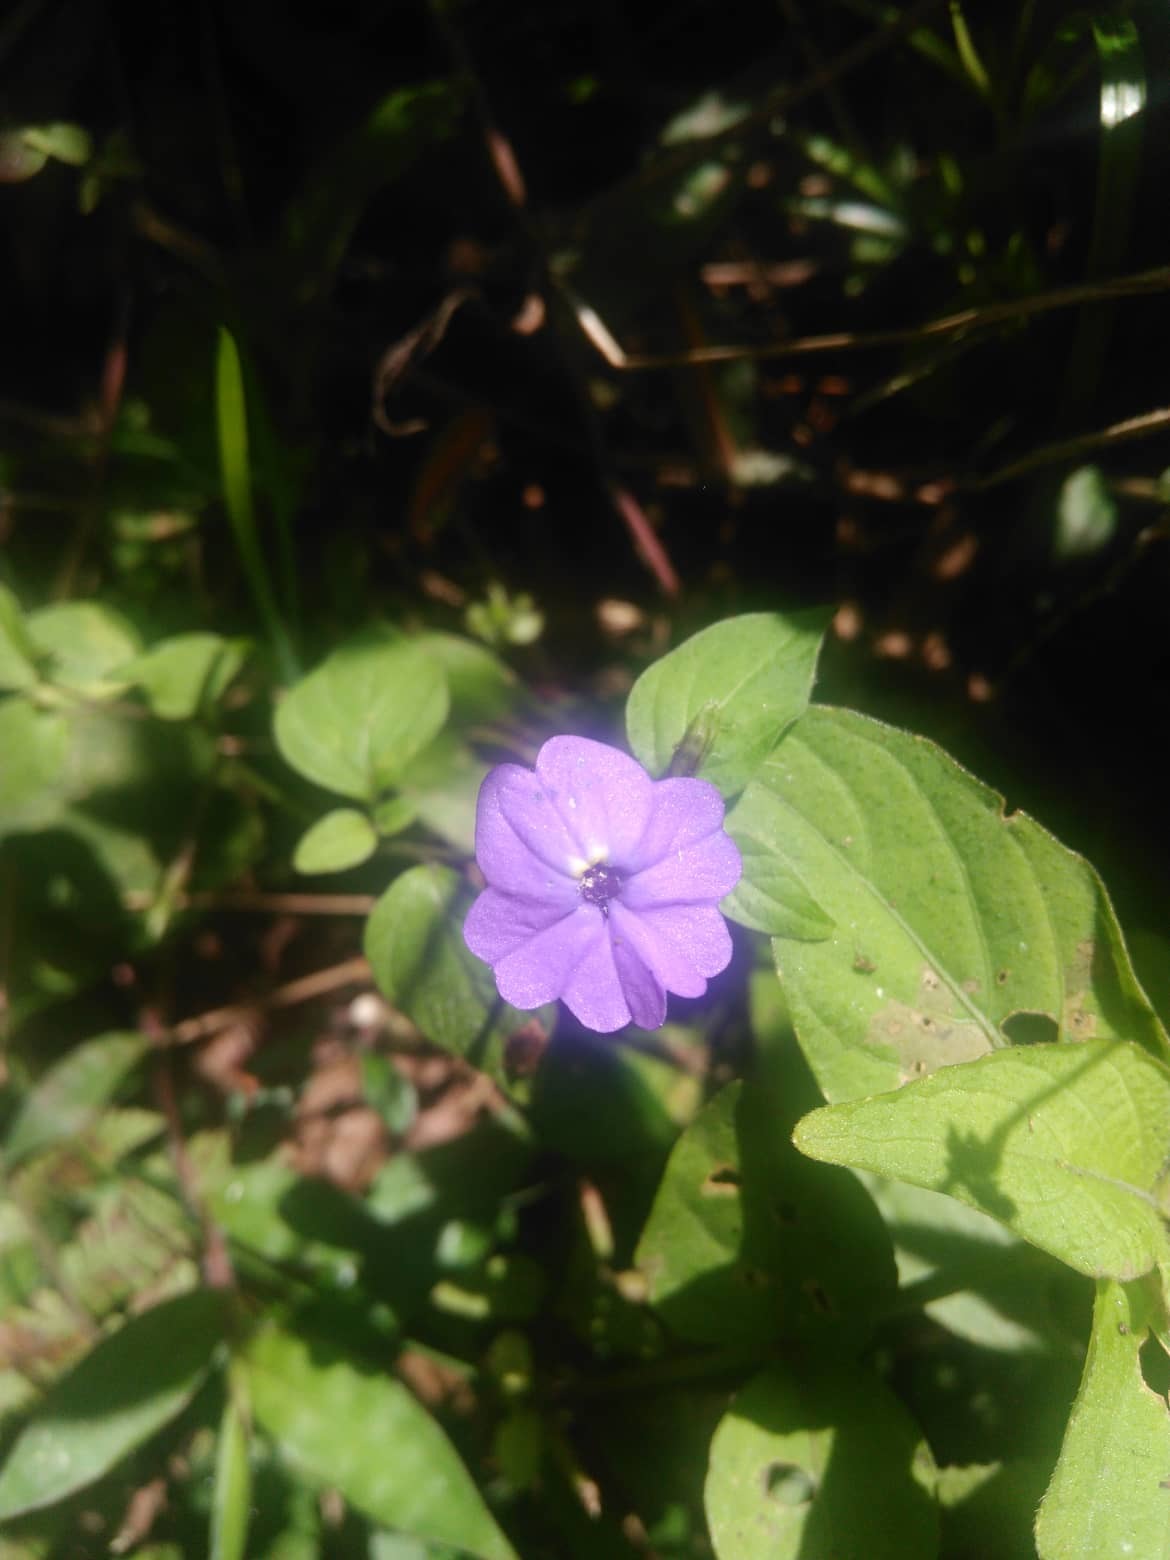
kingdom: Plantae
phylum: Tracheophyta
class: Magnoliopsida
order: Solanales
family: Solanaceae
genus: Browallia
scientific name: Browallia americana
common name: Jamaican forget-me-not
